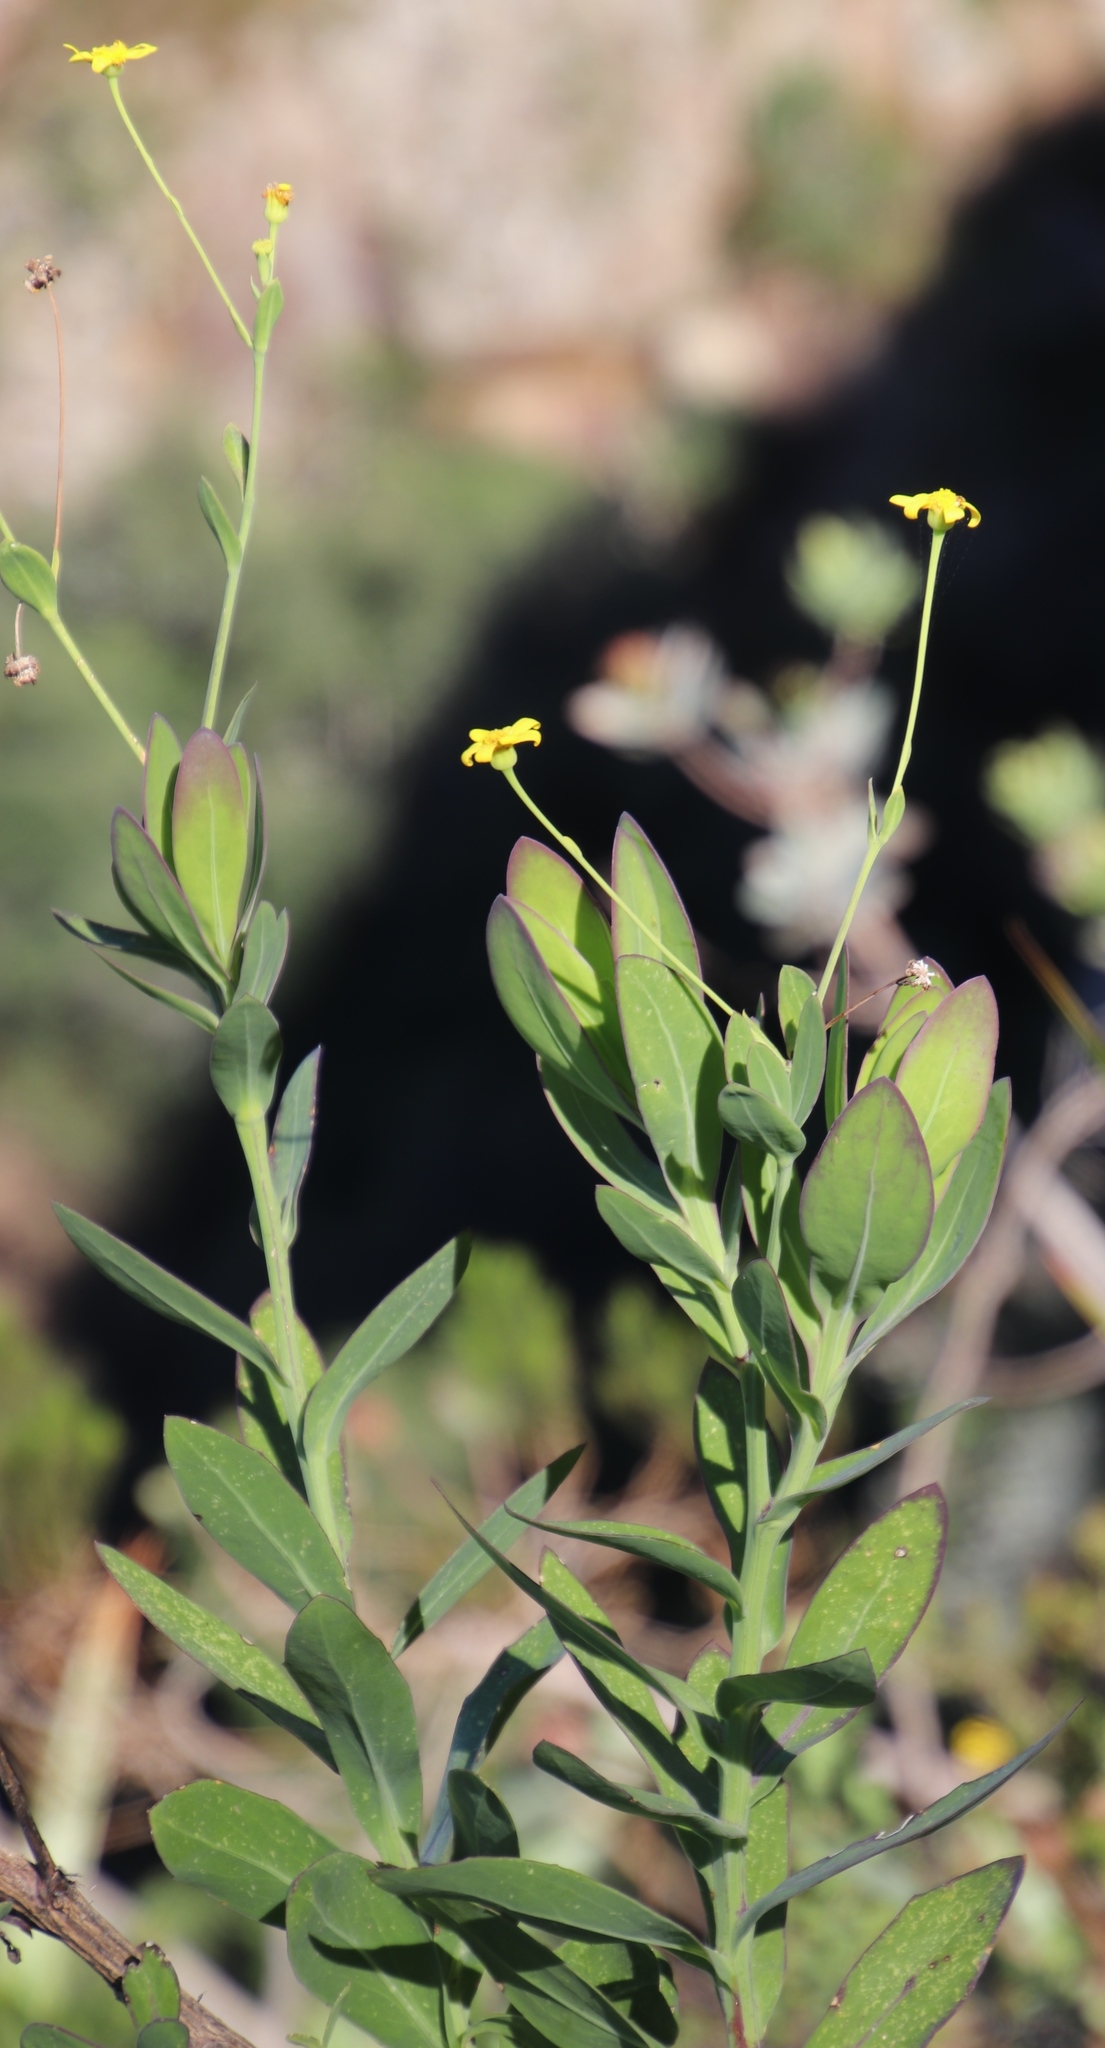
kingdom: Plantae
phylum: Tracheophyta
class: Magnoliopsida
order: Asterales
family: Asteraceae
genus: Othonna
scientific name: Othonna quinquedentata
